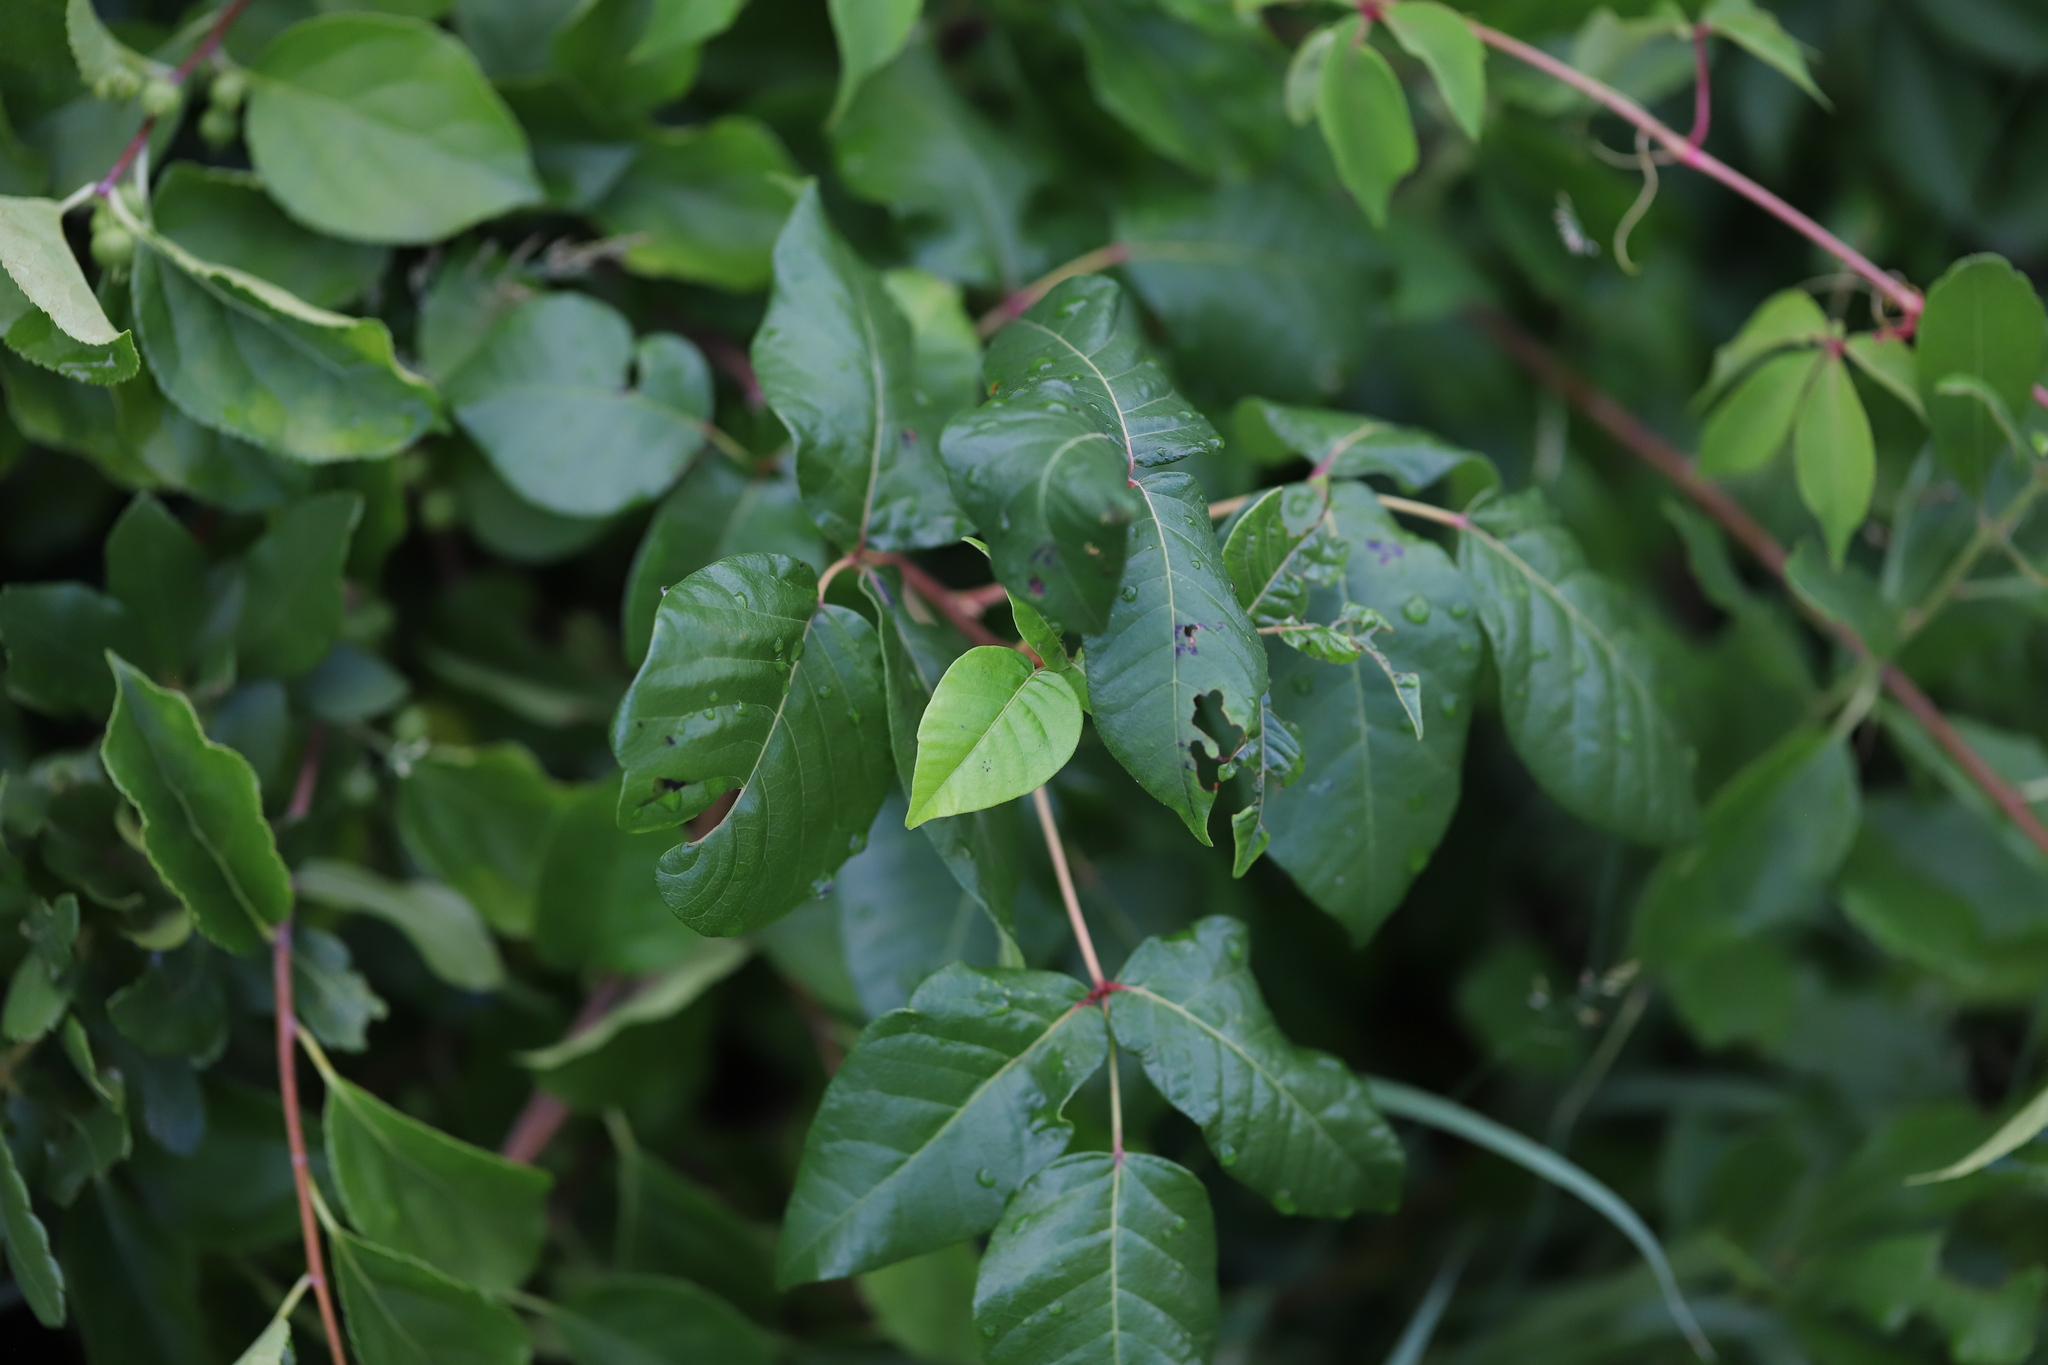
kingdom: Plantae
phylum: Tracheophyta
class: Magnoliopsida
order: Sapindales
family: Anacardiaceae
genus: Toxicodendron
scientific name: Toxicodendron radicans
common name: Poison ivy
